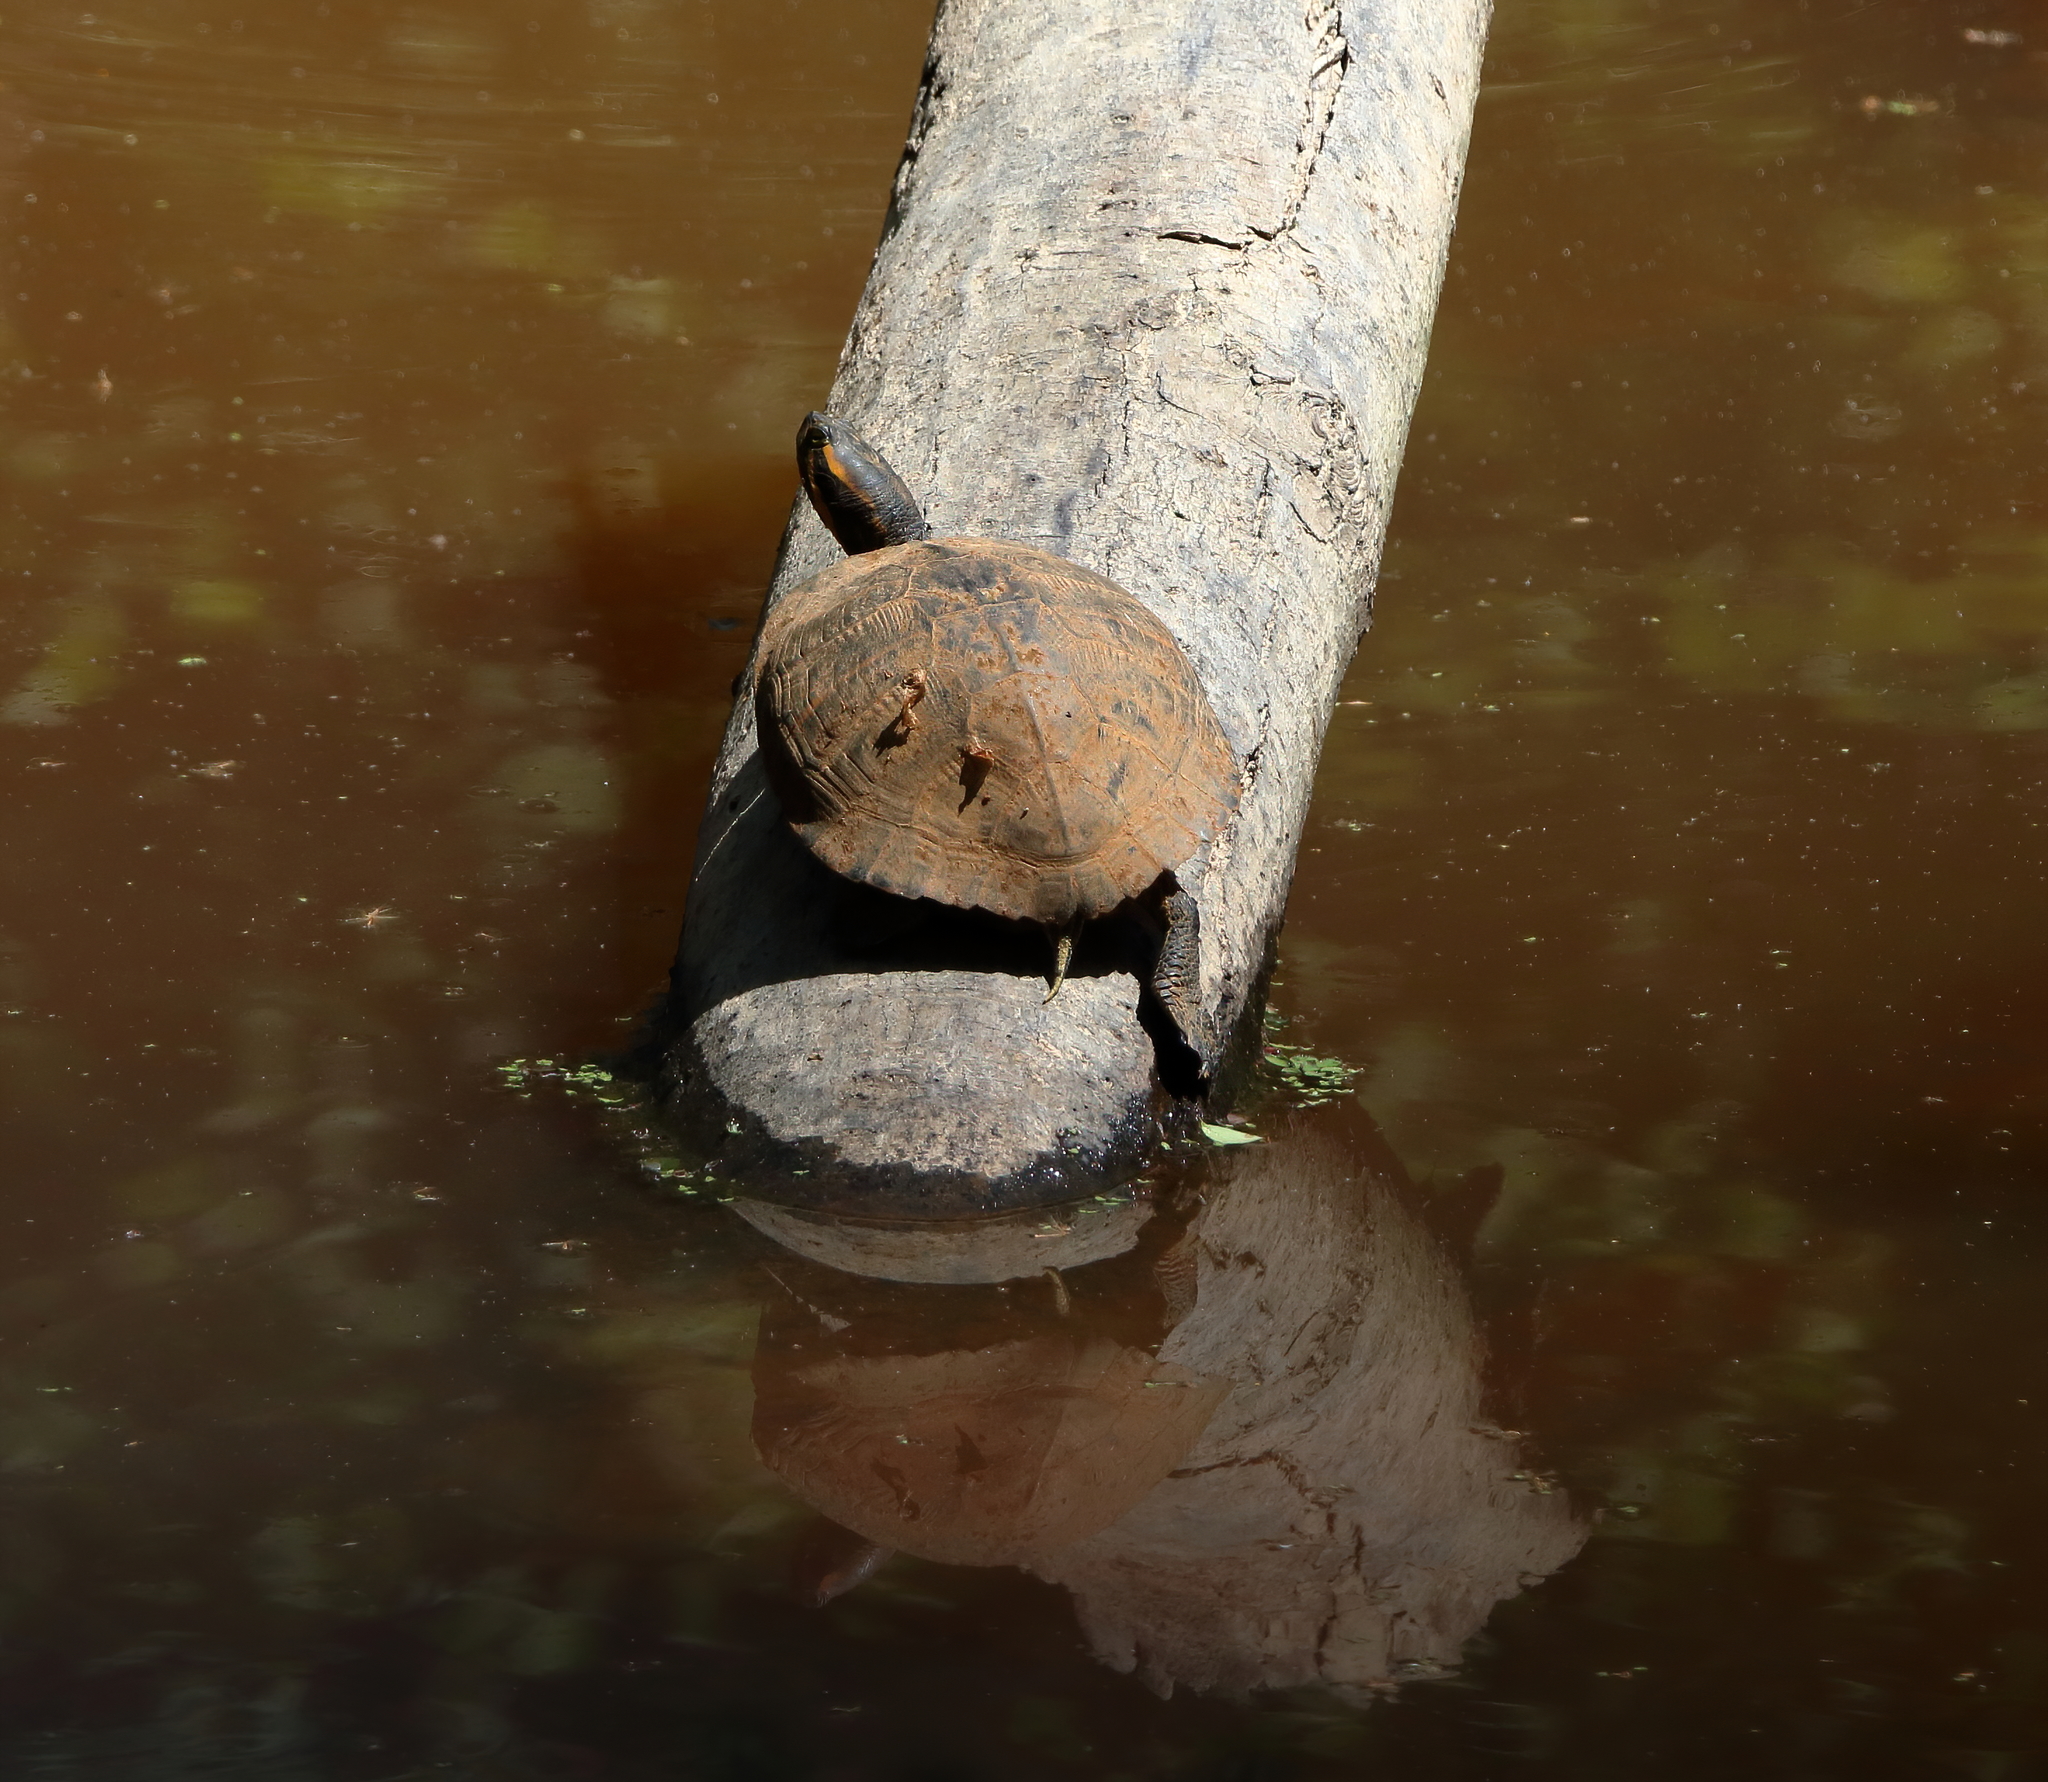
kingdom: Animalia
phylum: Chordata
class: Testudines
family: Emydidae
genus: Trachemys
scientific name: Trachemys scripta
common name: Slider
